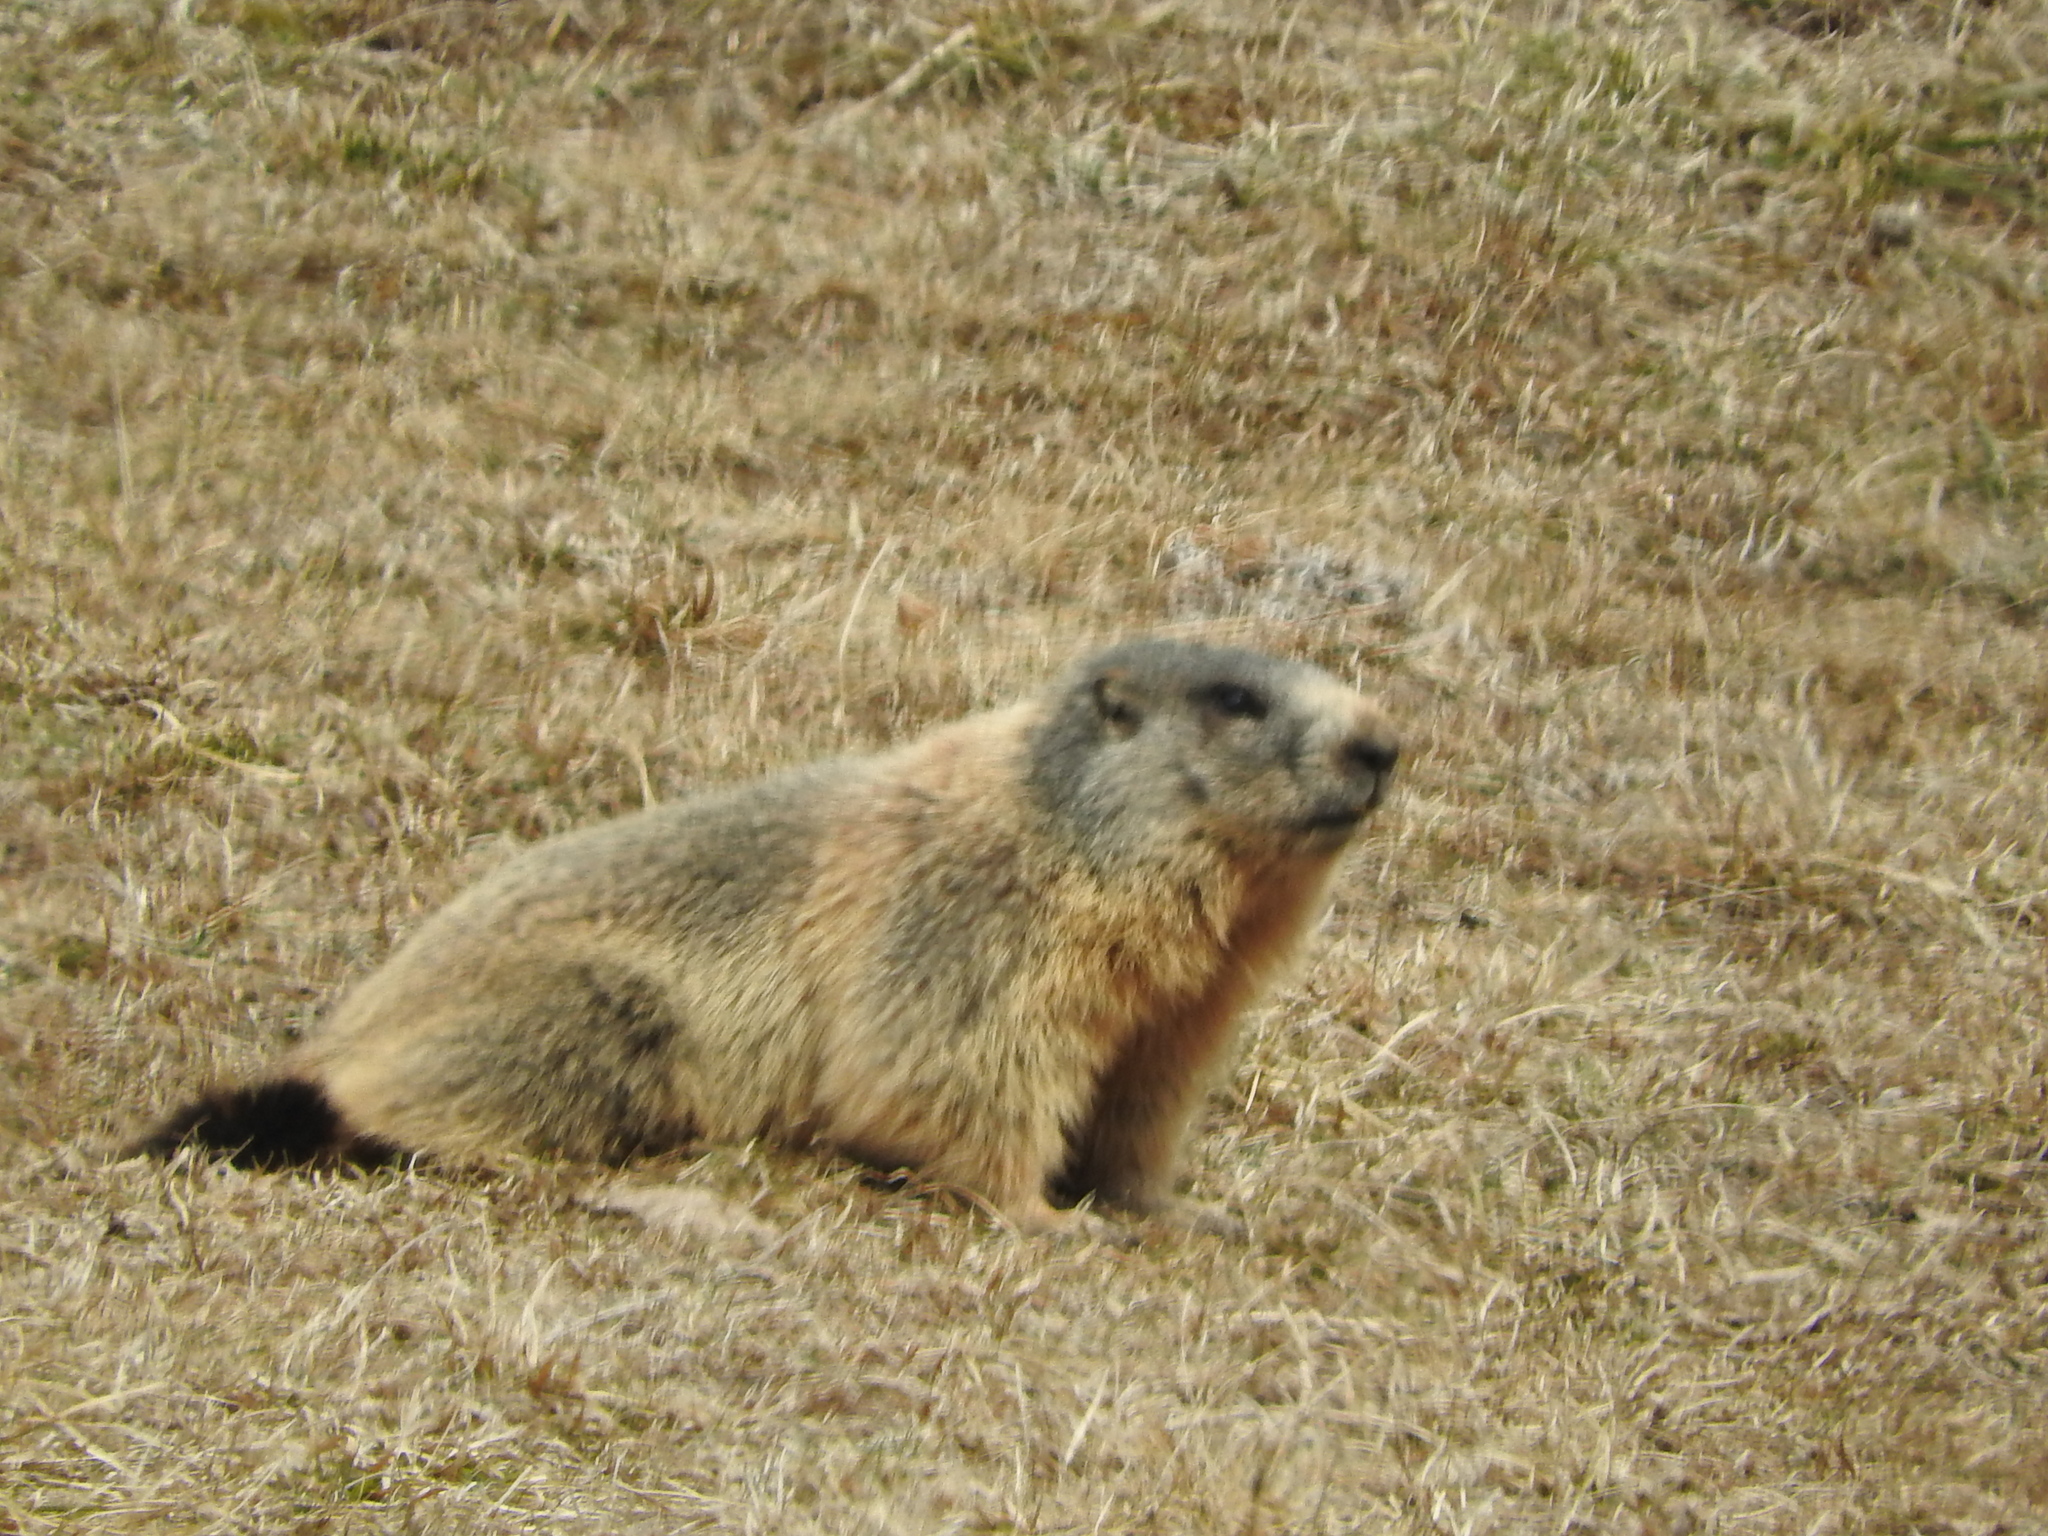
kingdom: Animalia
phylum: Chordata
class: Mammalia
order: Rodentia
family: Sciuridae
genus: Marmota
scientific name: Marmota marmota
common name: Alpine marmot
